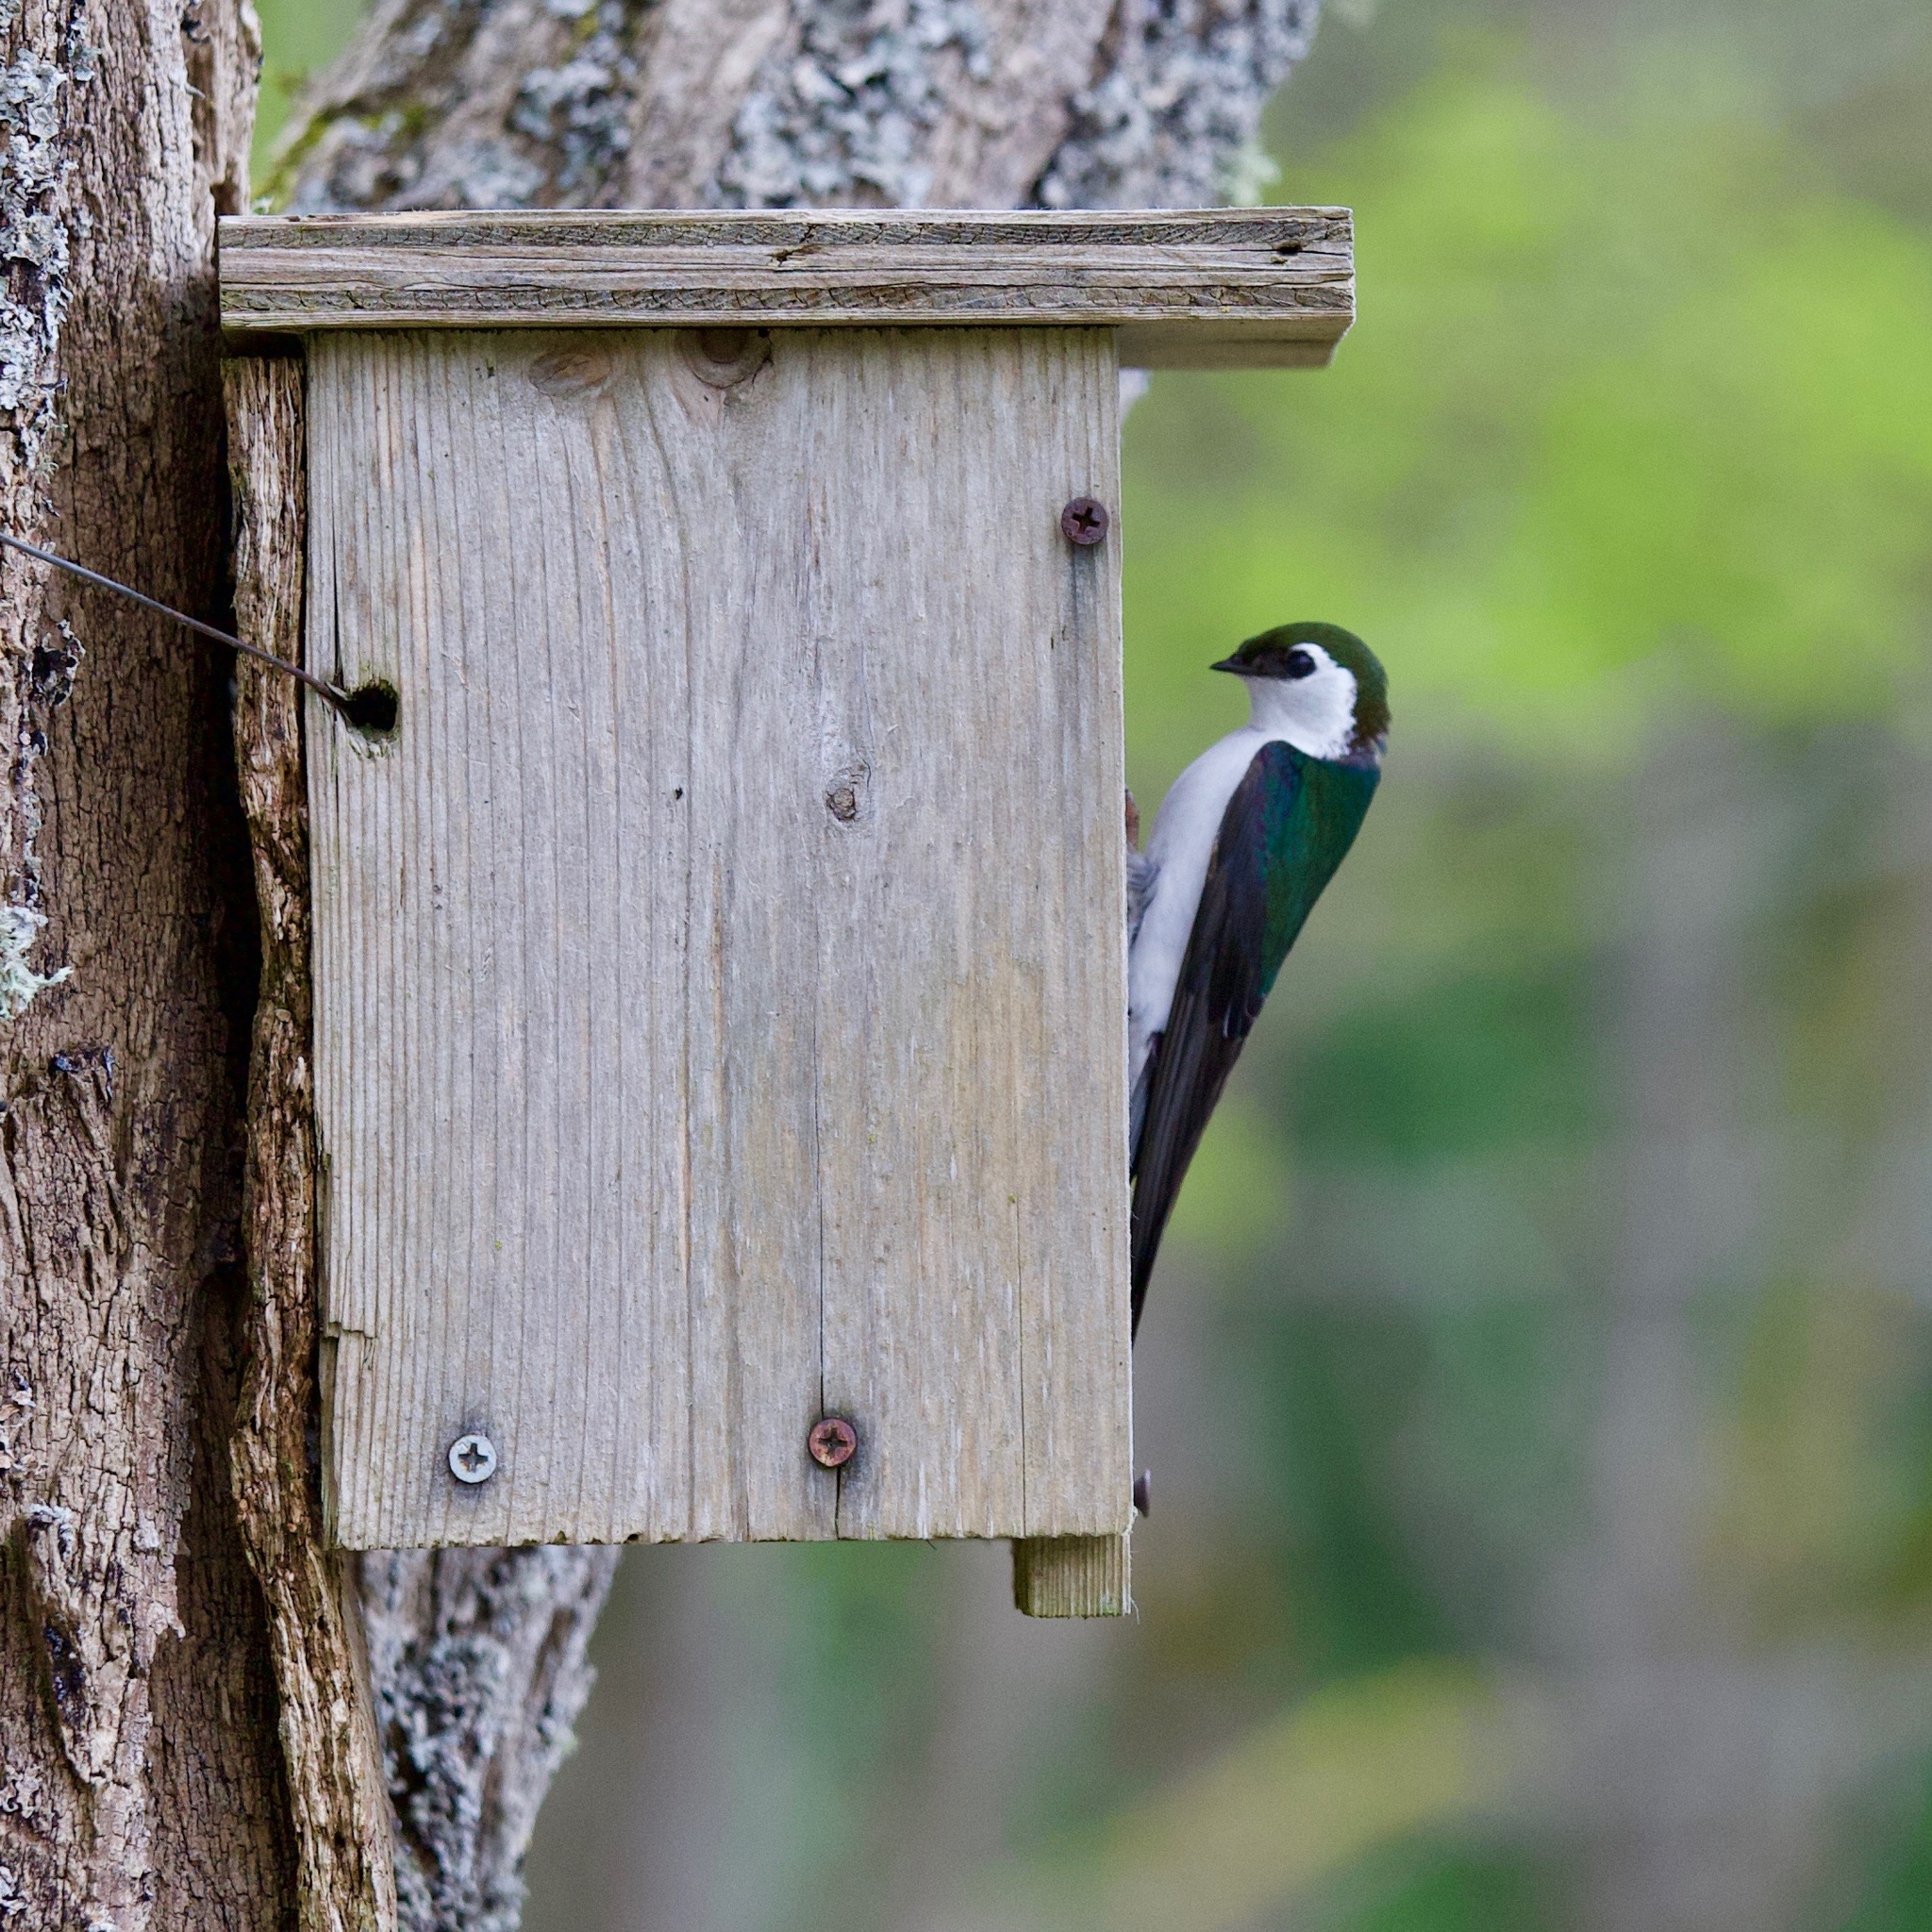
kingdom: Animalia
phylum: Chordata
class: Aves
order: Passeriformes
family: Hirundinidae
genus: Tachycineta
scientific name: Tachycineta thalassina
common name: Violet-green swallow
